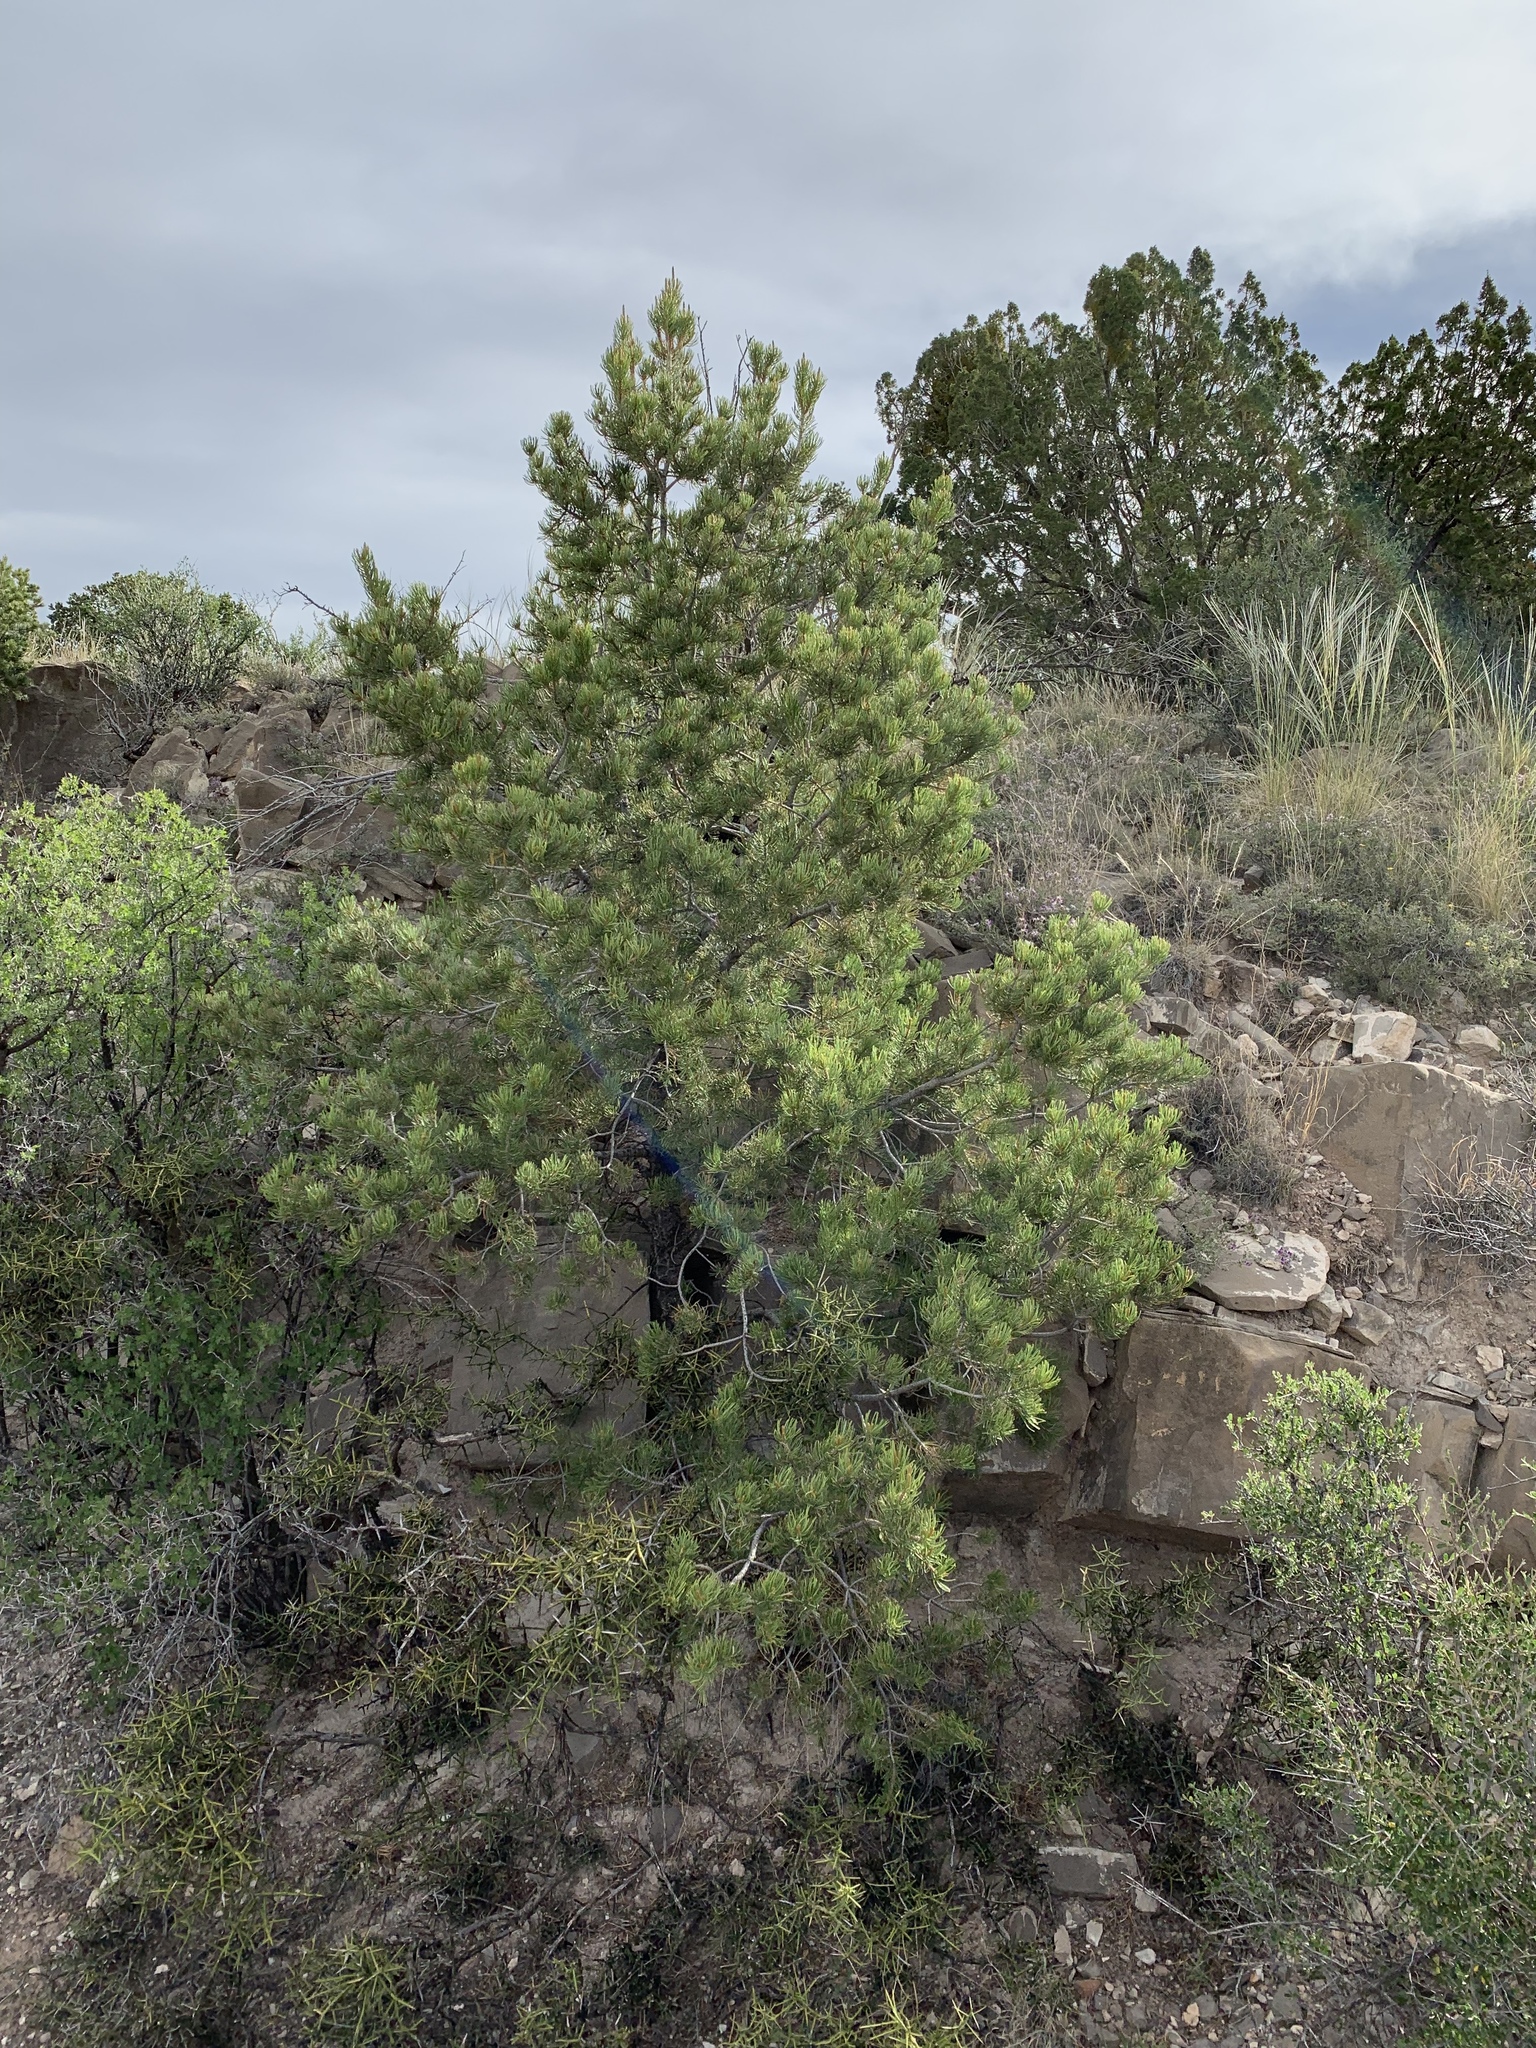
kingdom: Plantae
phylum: Tracheophyta
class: Pinopsida
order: Pinales
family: Pinaceae
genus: Pinus
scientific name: Pinus edulis
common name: Colorado pinyon
